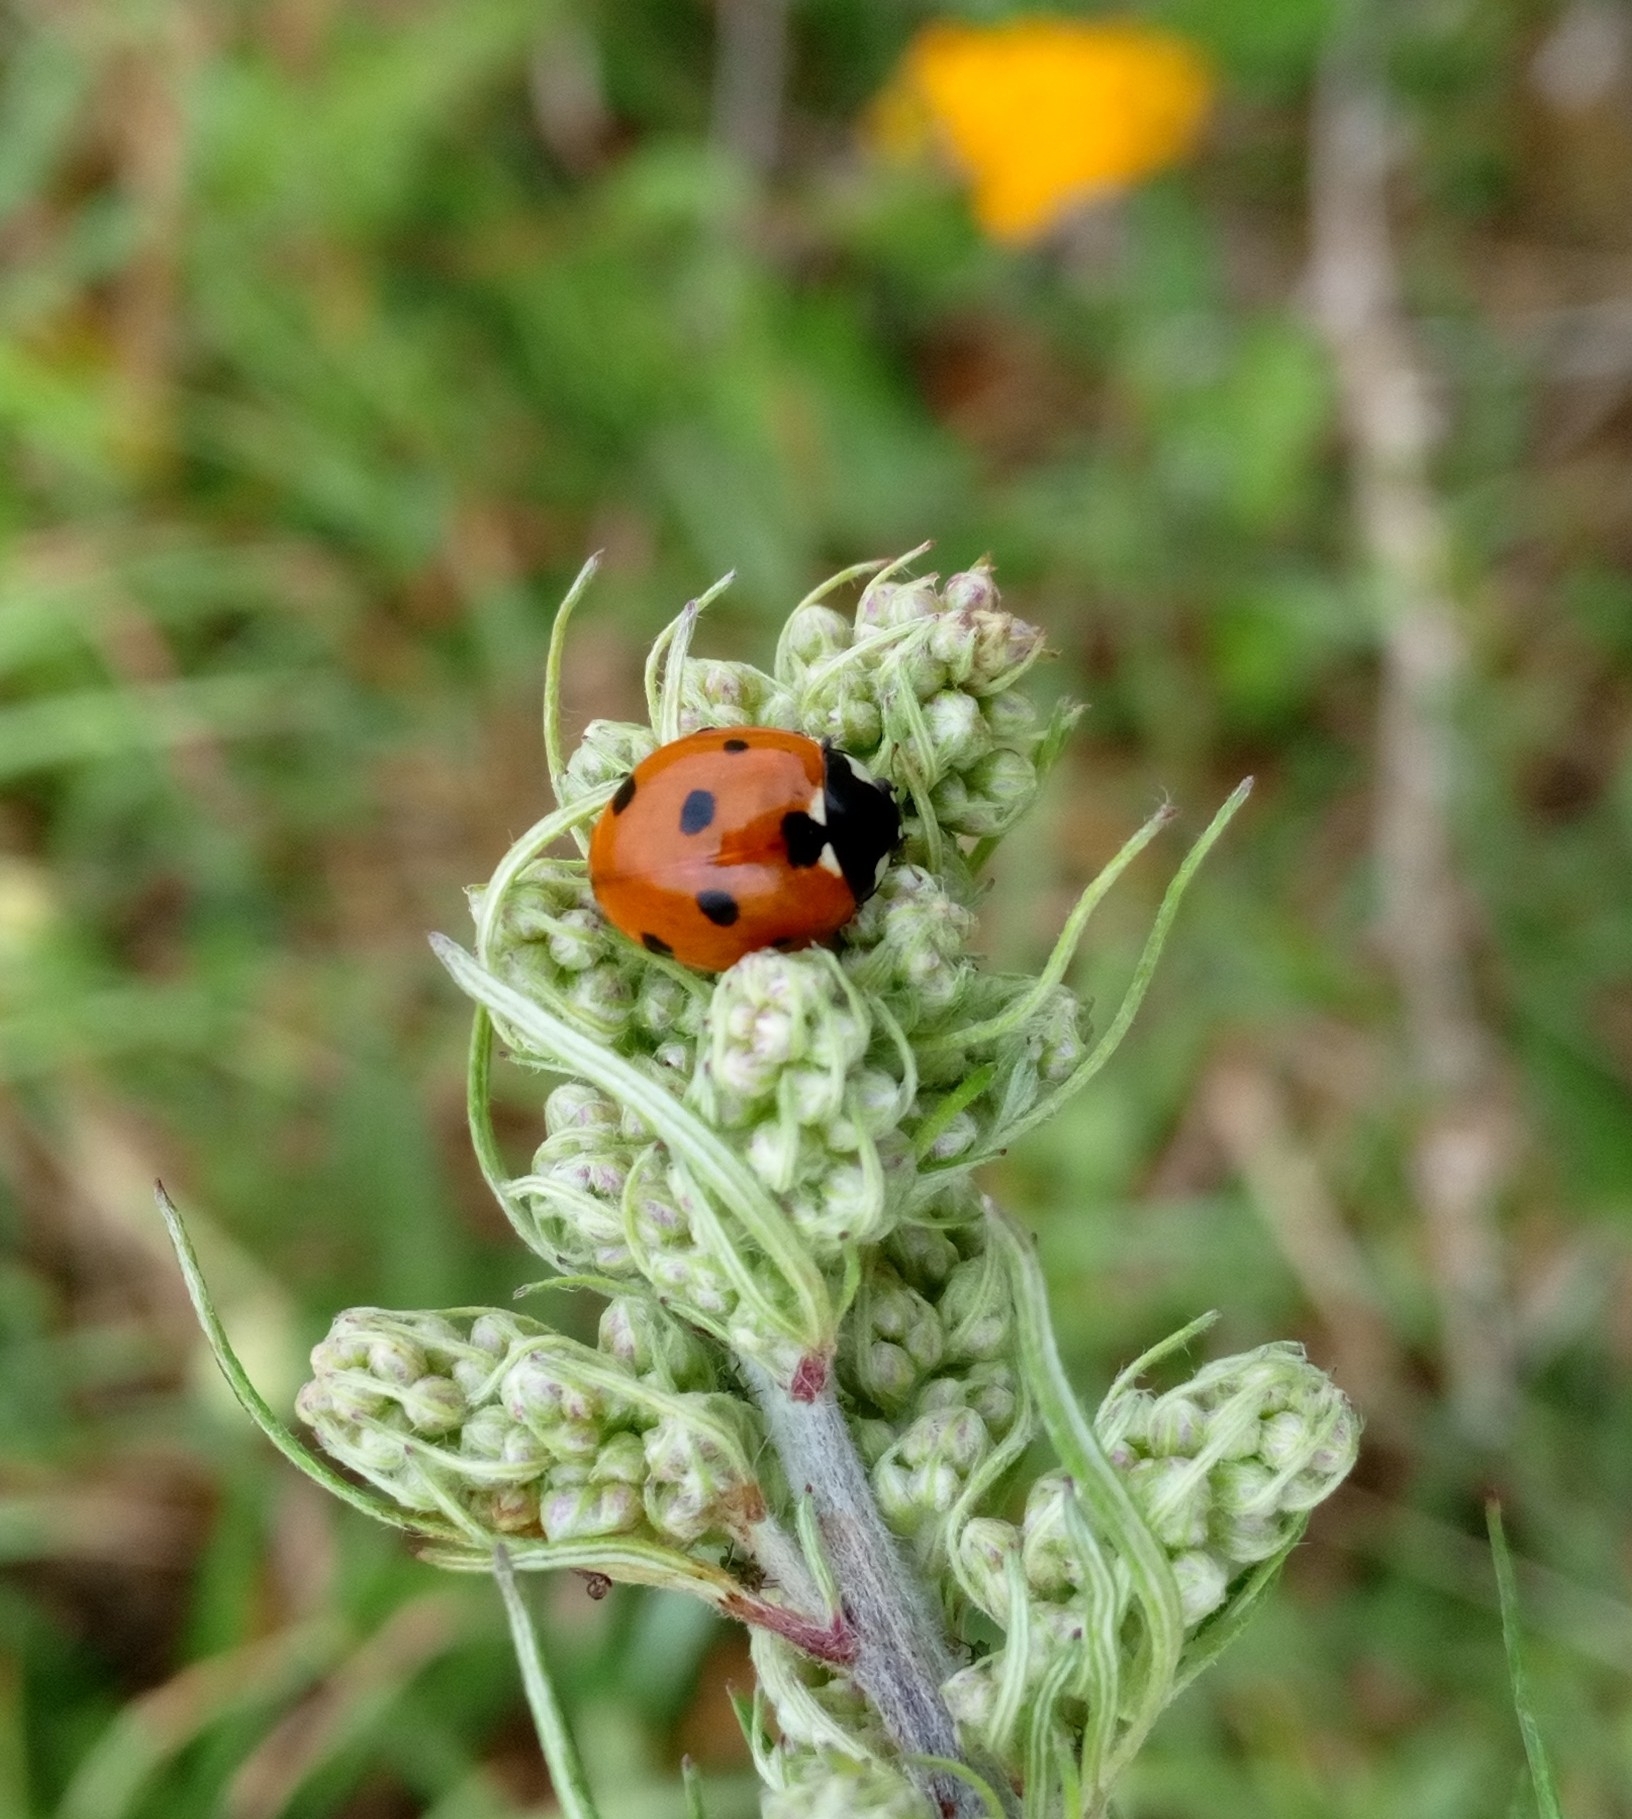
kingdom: Animalia
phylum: Arthropoda
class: Insecta
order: Coleoptera
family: Coccinellidae
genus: Coccinella
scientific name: Coccinella septempunctata
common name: Sevenspotted lady beetle
